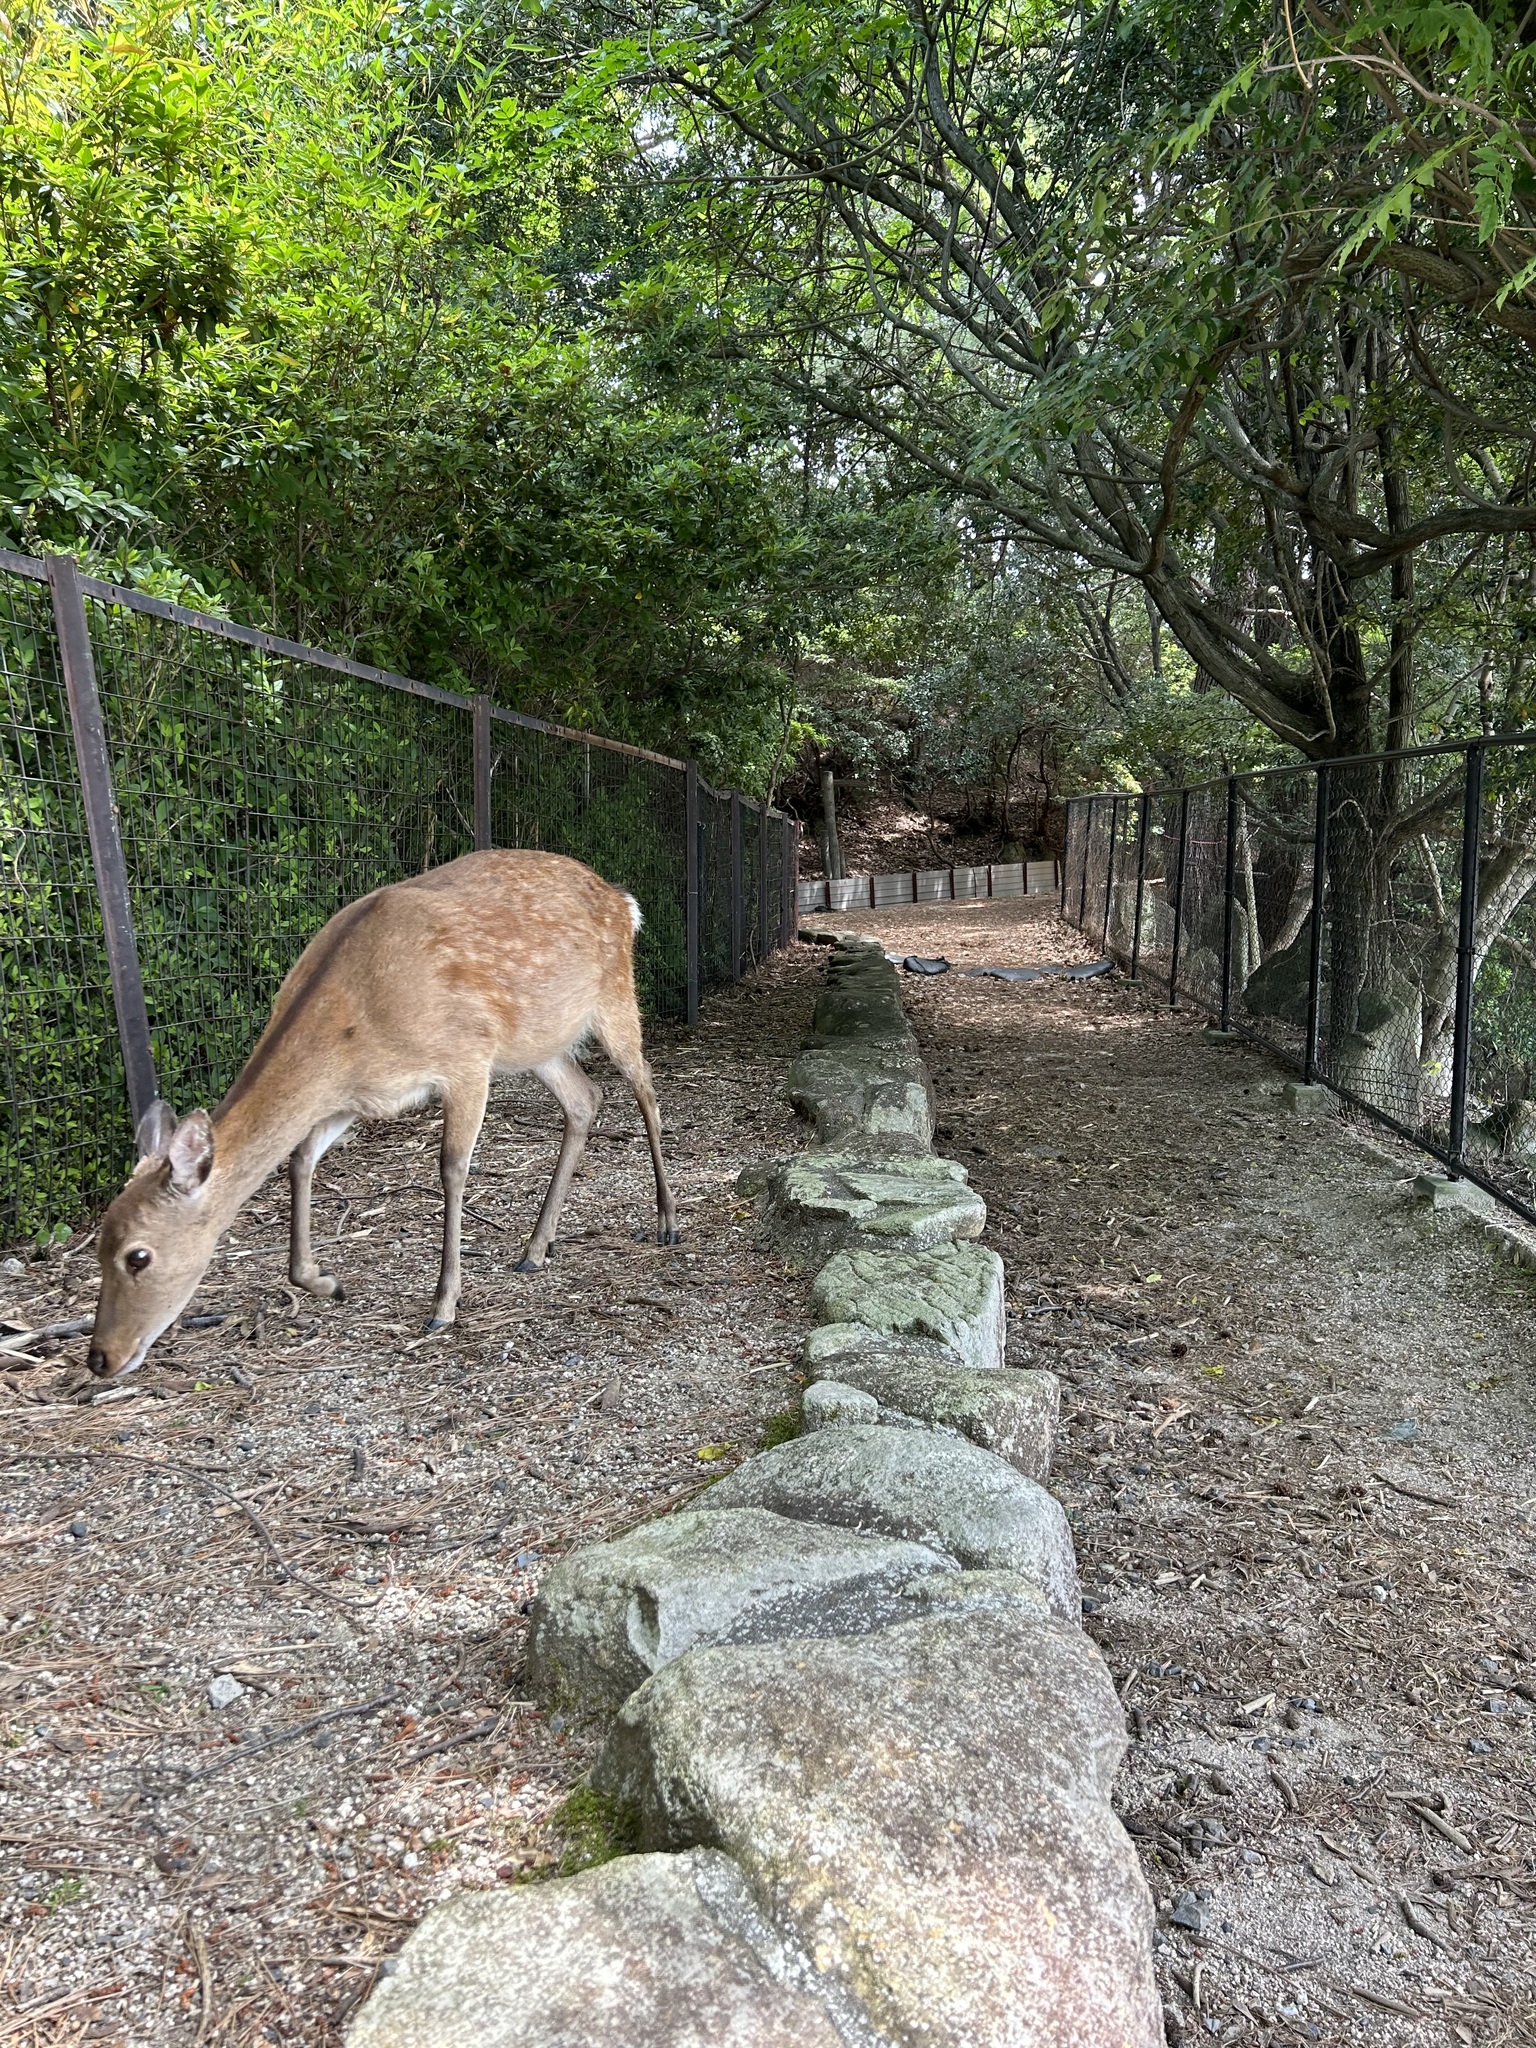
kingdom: Animalia
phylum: Chordata
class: Mammalia
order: Artiodactyla
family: Cervidae
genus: Cervus
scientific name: Cervus nippon
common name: Sika deer
